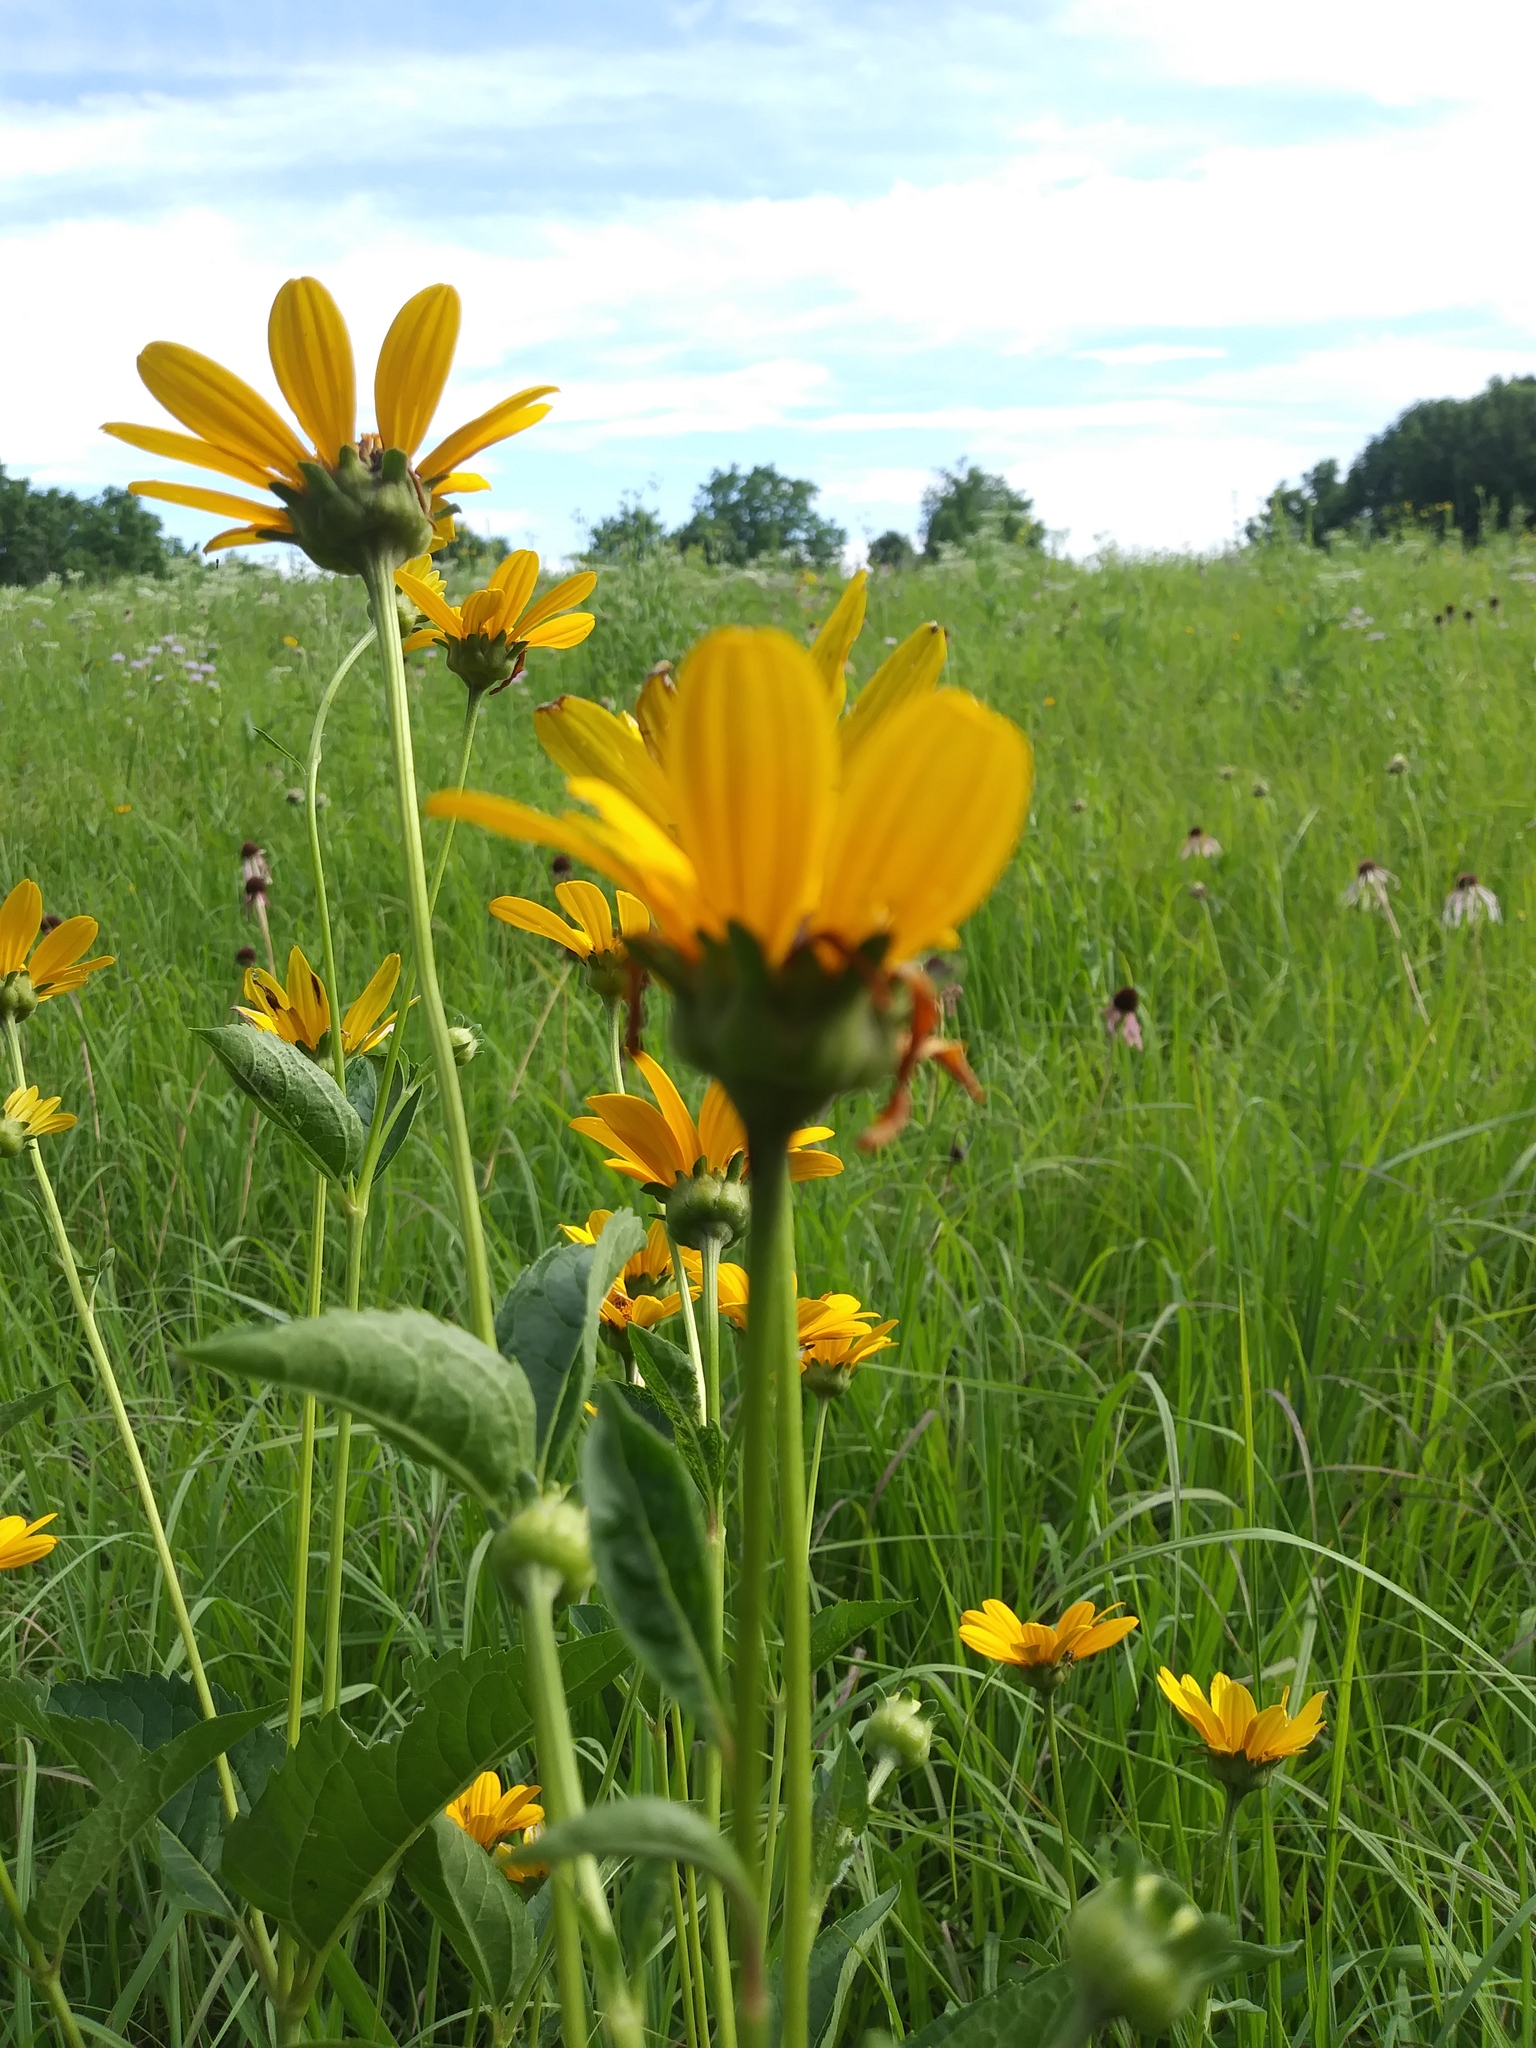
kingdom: Plantae
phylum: Tracheophyta
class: Magnoliopsida
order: Asterales
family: Asteraceae
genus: Heliopsis
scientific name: Heliopsis helianthoides
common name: False sunflower
